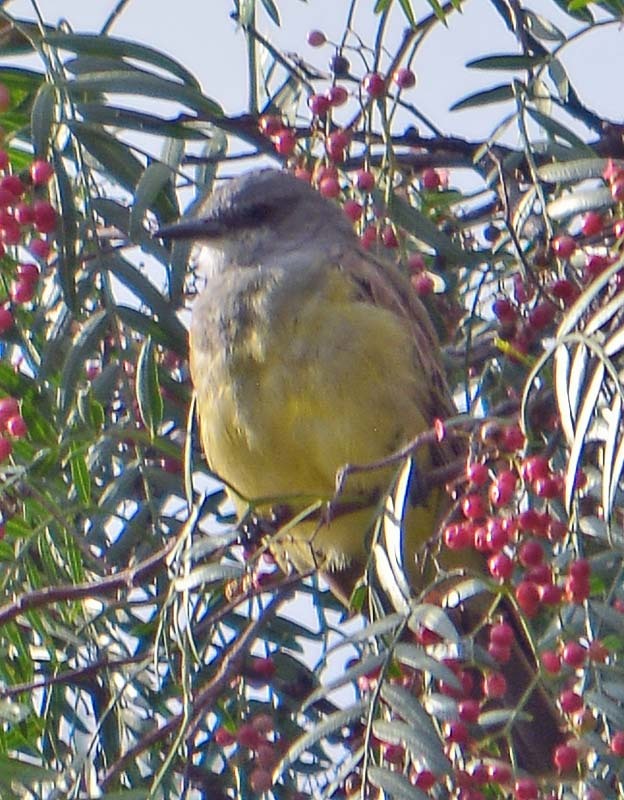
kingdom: Animalia
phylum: Chordata
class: Aves
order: Passeriformes
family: Tyrannidae
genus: Tyrannus
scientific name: Tyrannus vociferans
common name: Cassin's kingbird
